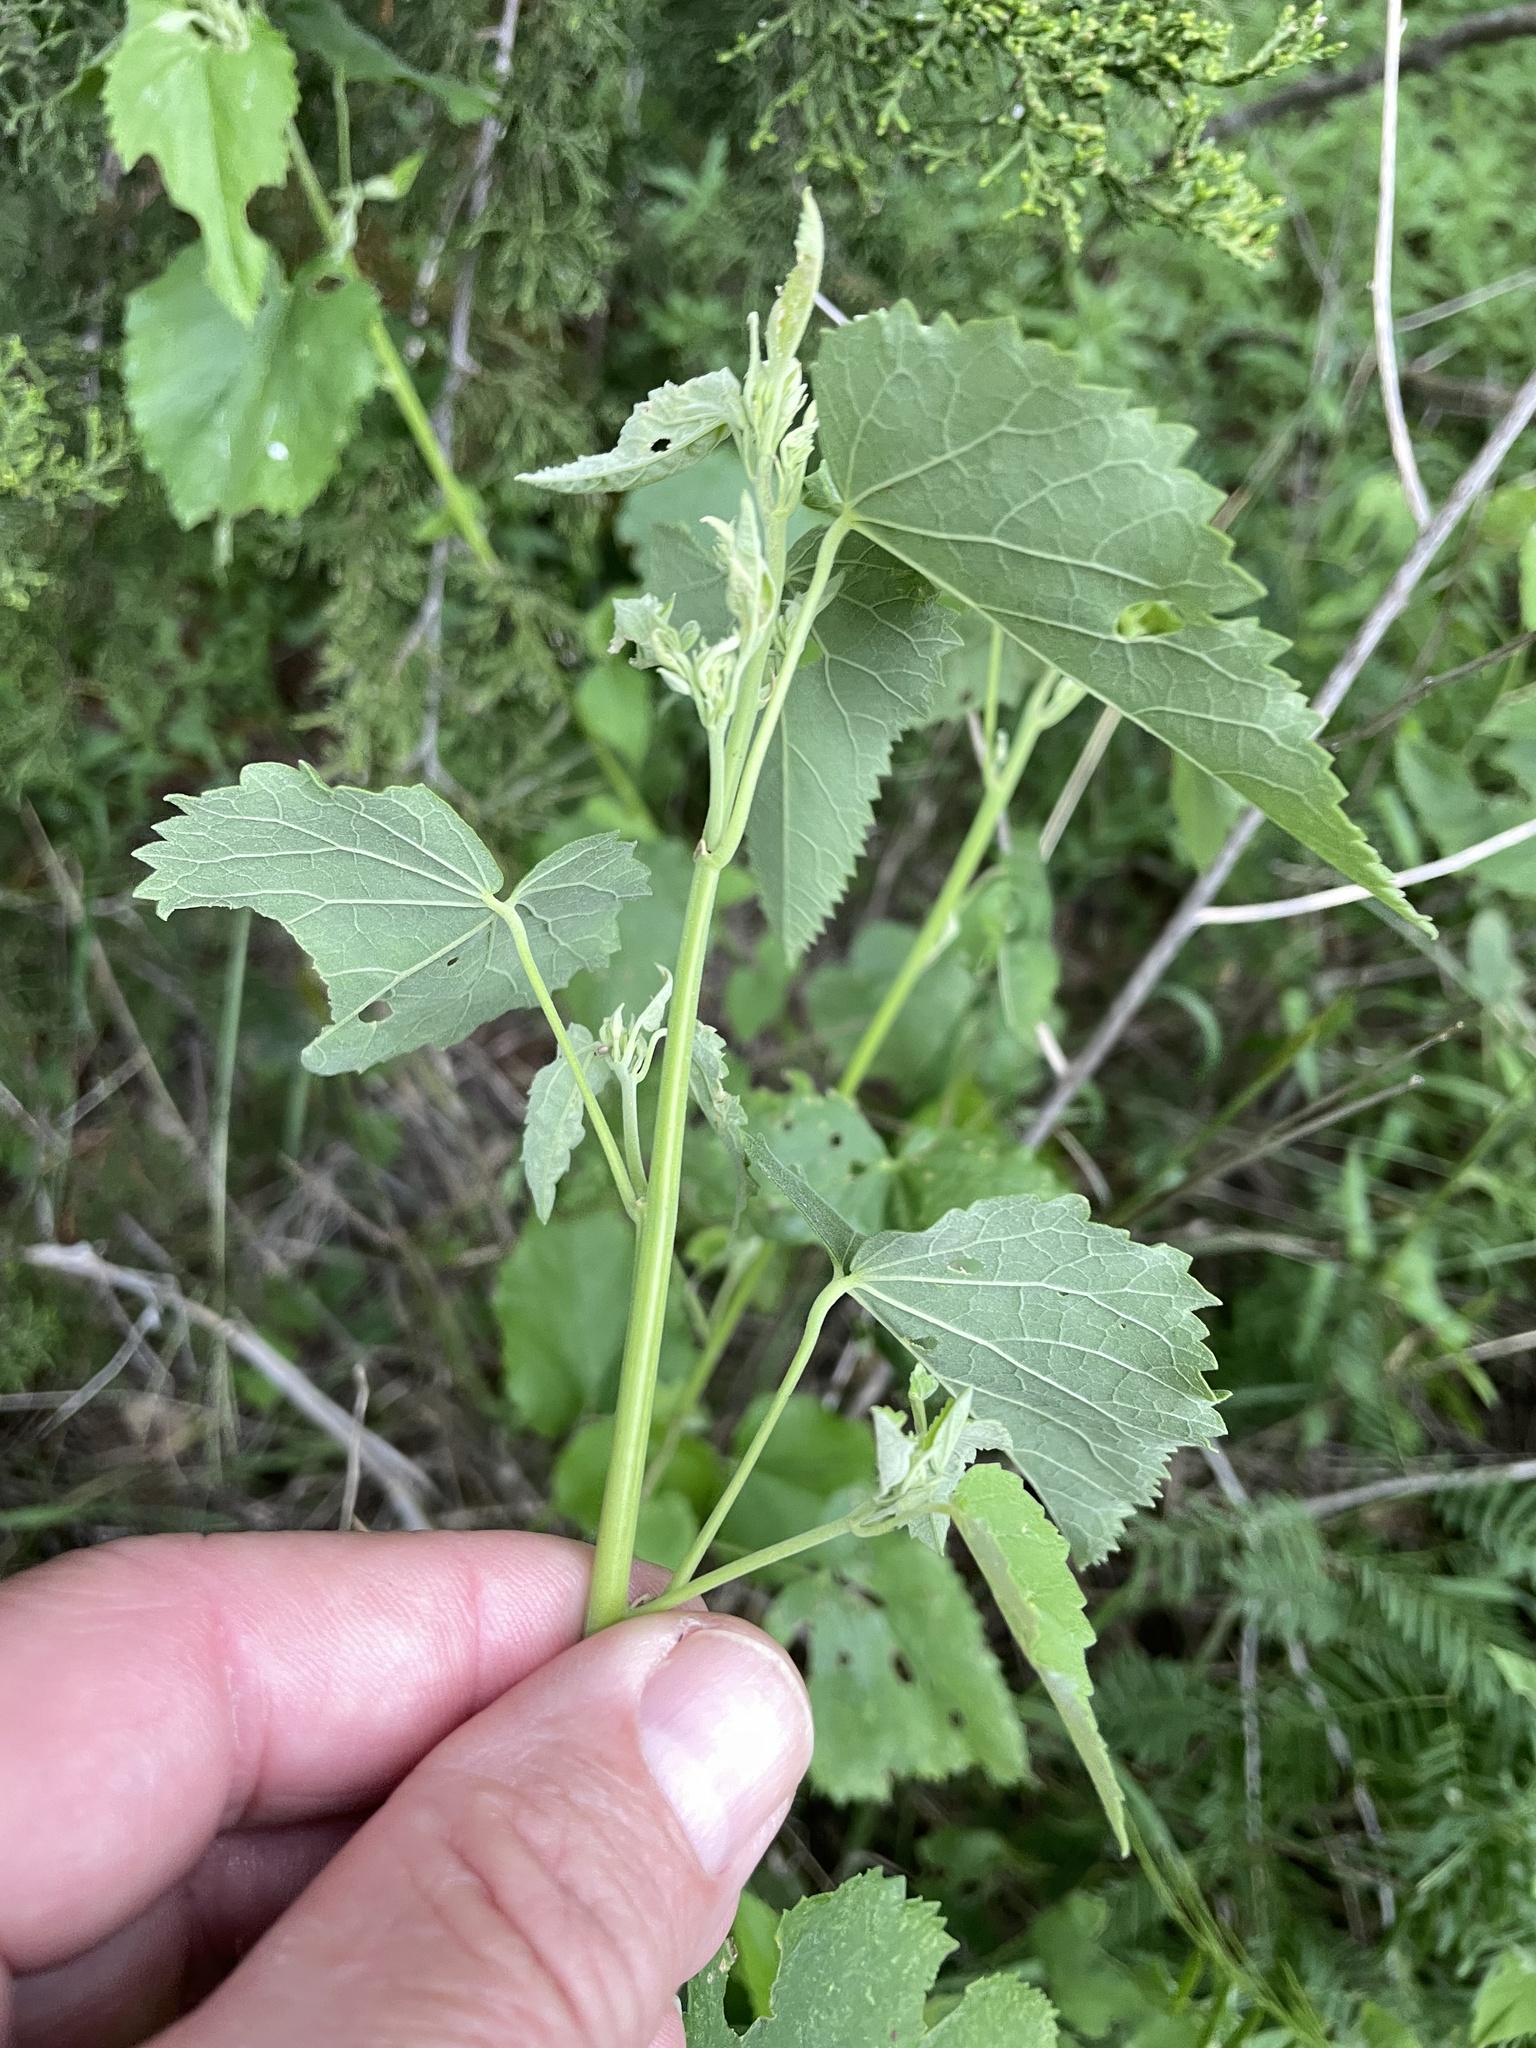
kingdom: Plantae
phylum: Tracheophyta
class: Magnoliopsida
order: Malvales
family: Malvaceae
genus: Abutilon
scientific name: Abutilon fruticosum
